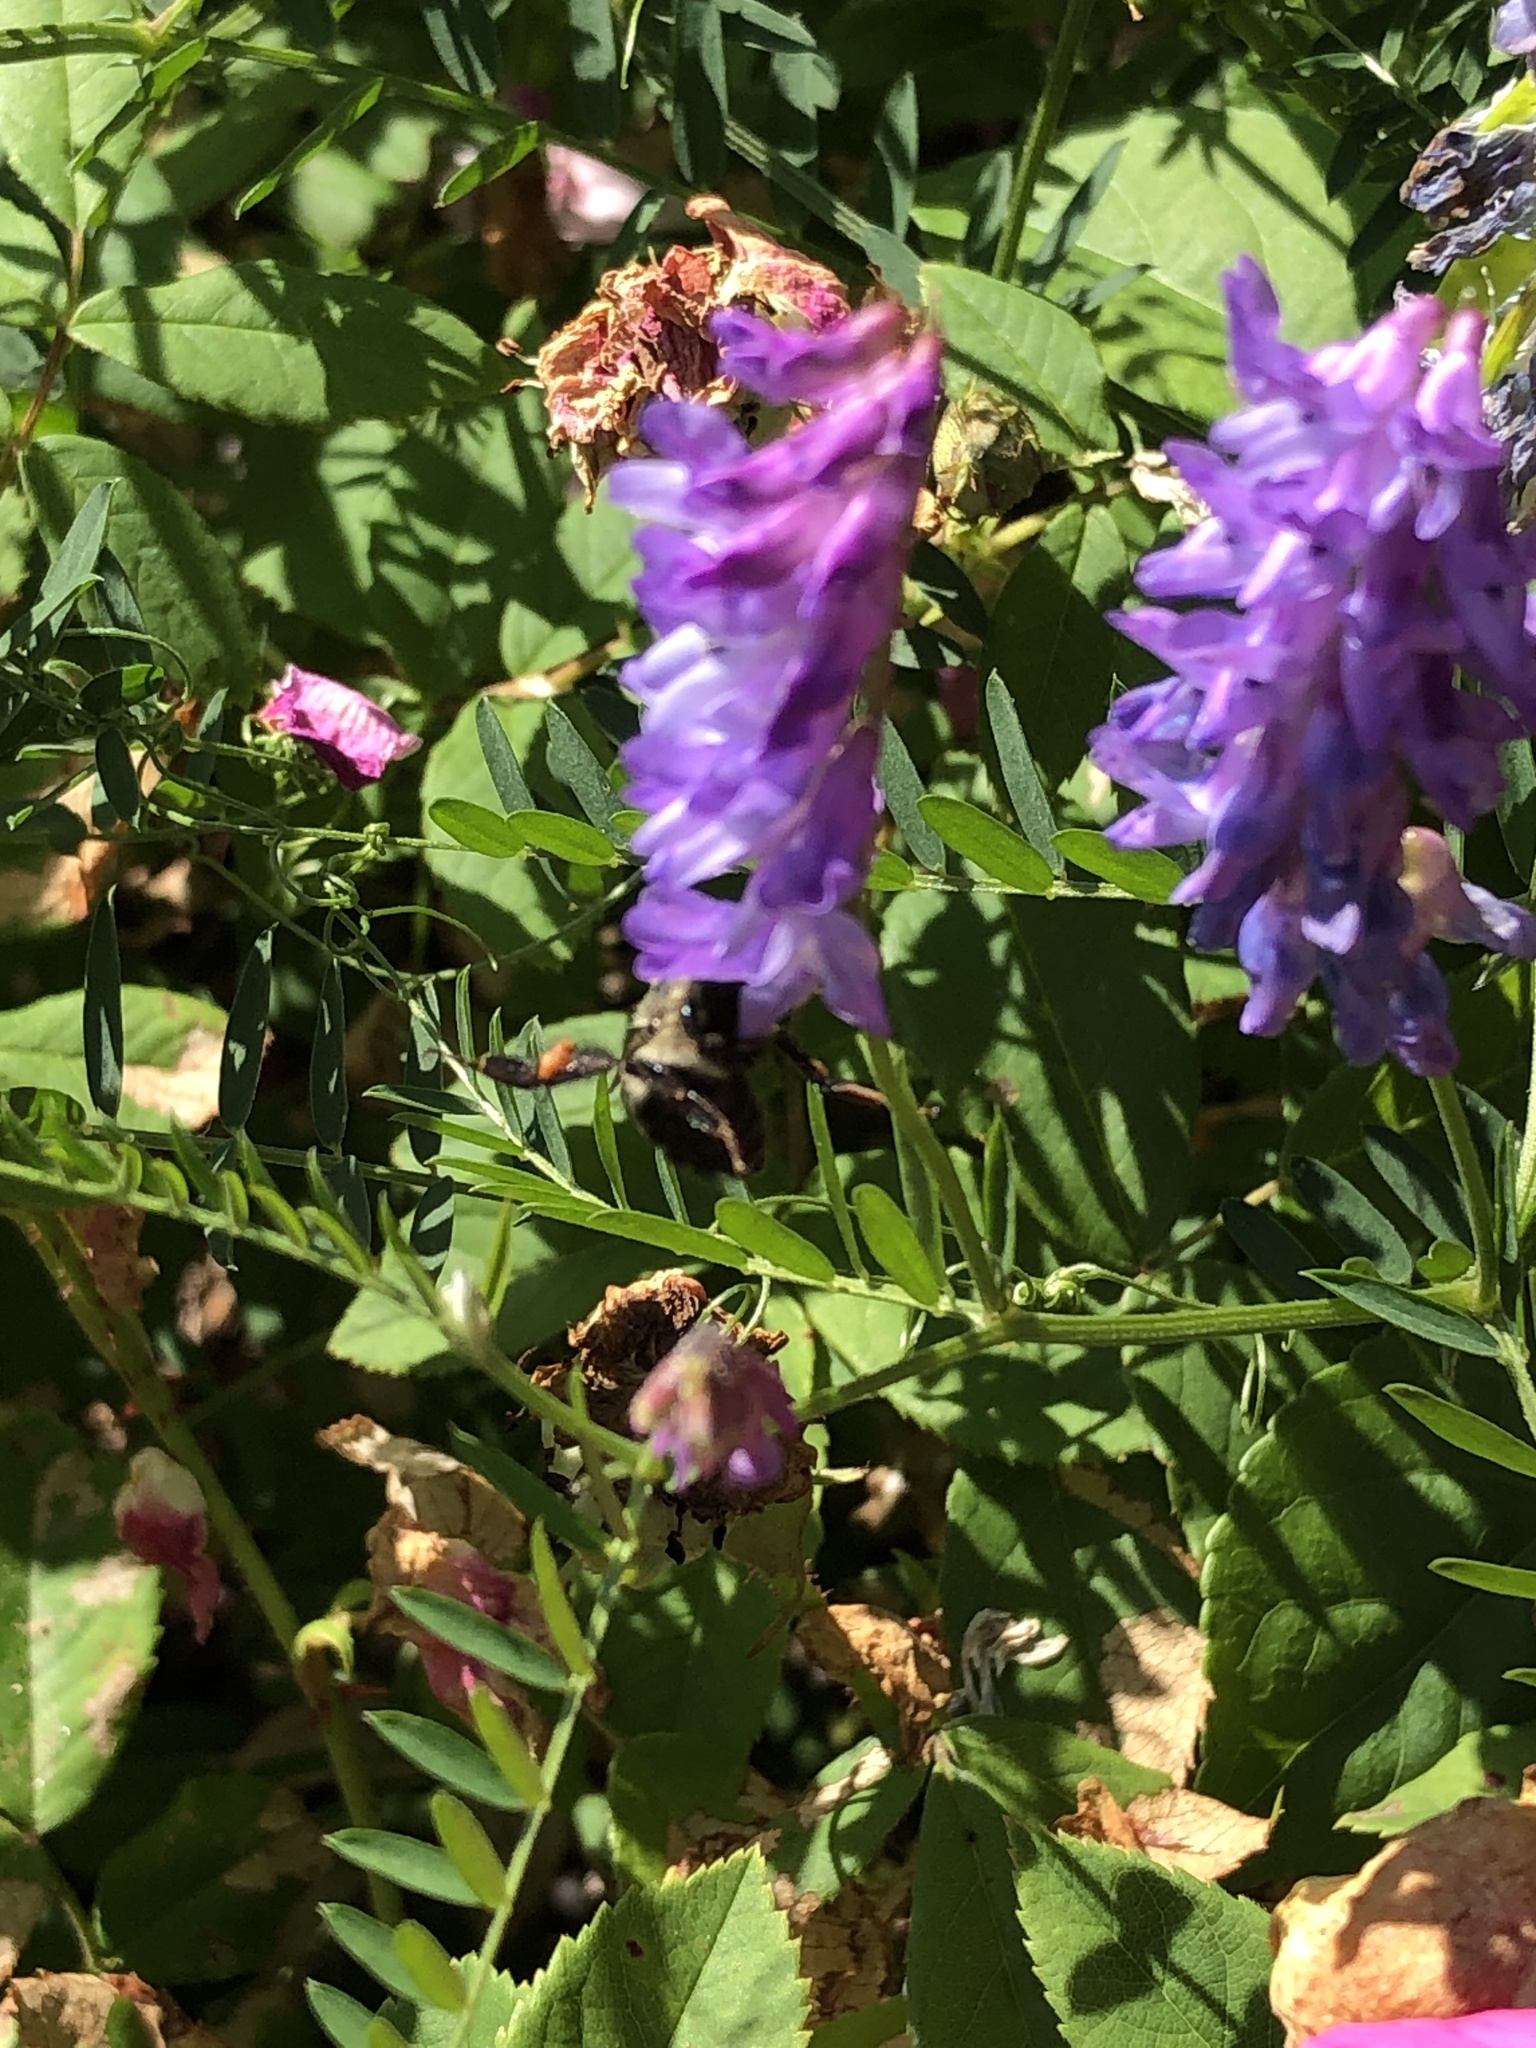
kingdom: Animalia
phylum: Arthropoda
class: Insecta
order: Hymenoptera
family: Apidae
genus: Bombus
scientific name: Bombus impatiens
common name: Common eastern bumble bee
